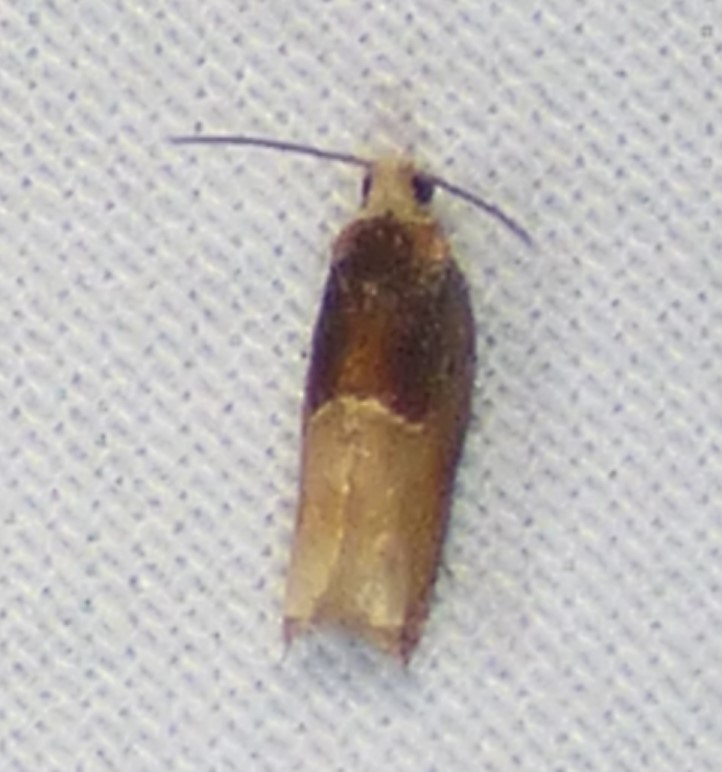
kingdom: Animalia
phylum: Arthropoda
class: Insecta
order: Lepidoptera
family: Tortricidae
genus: Ancylis
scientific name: Ancylis divisana
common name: Two-toned ancylis moth
